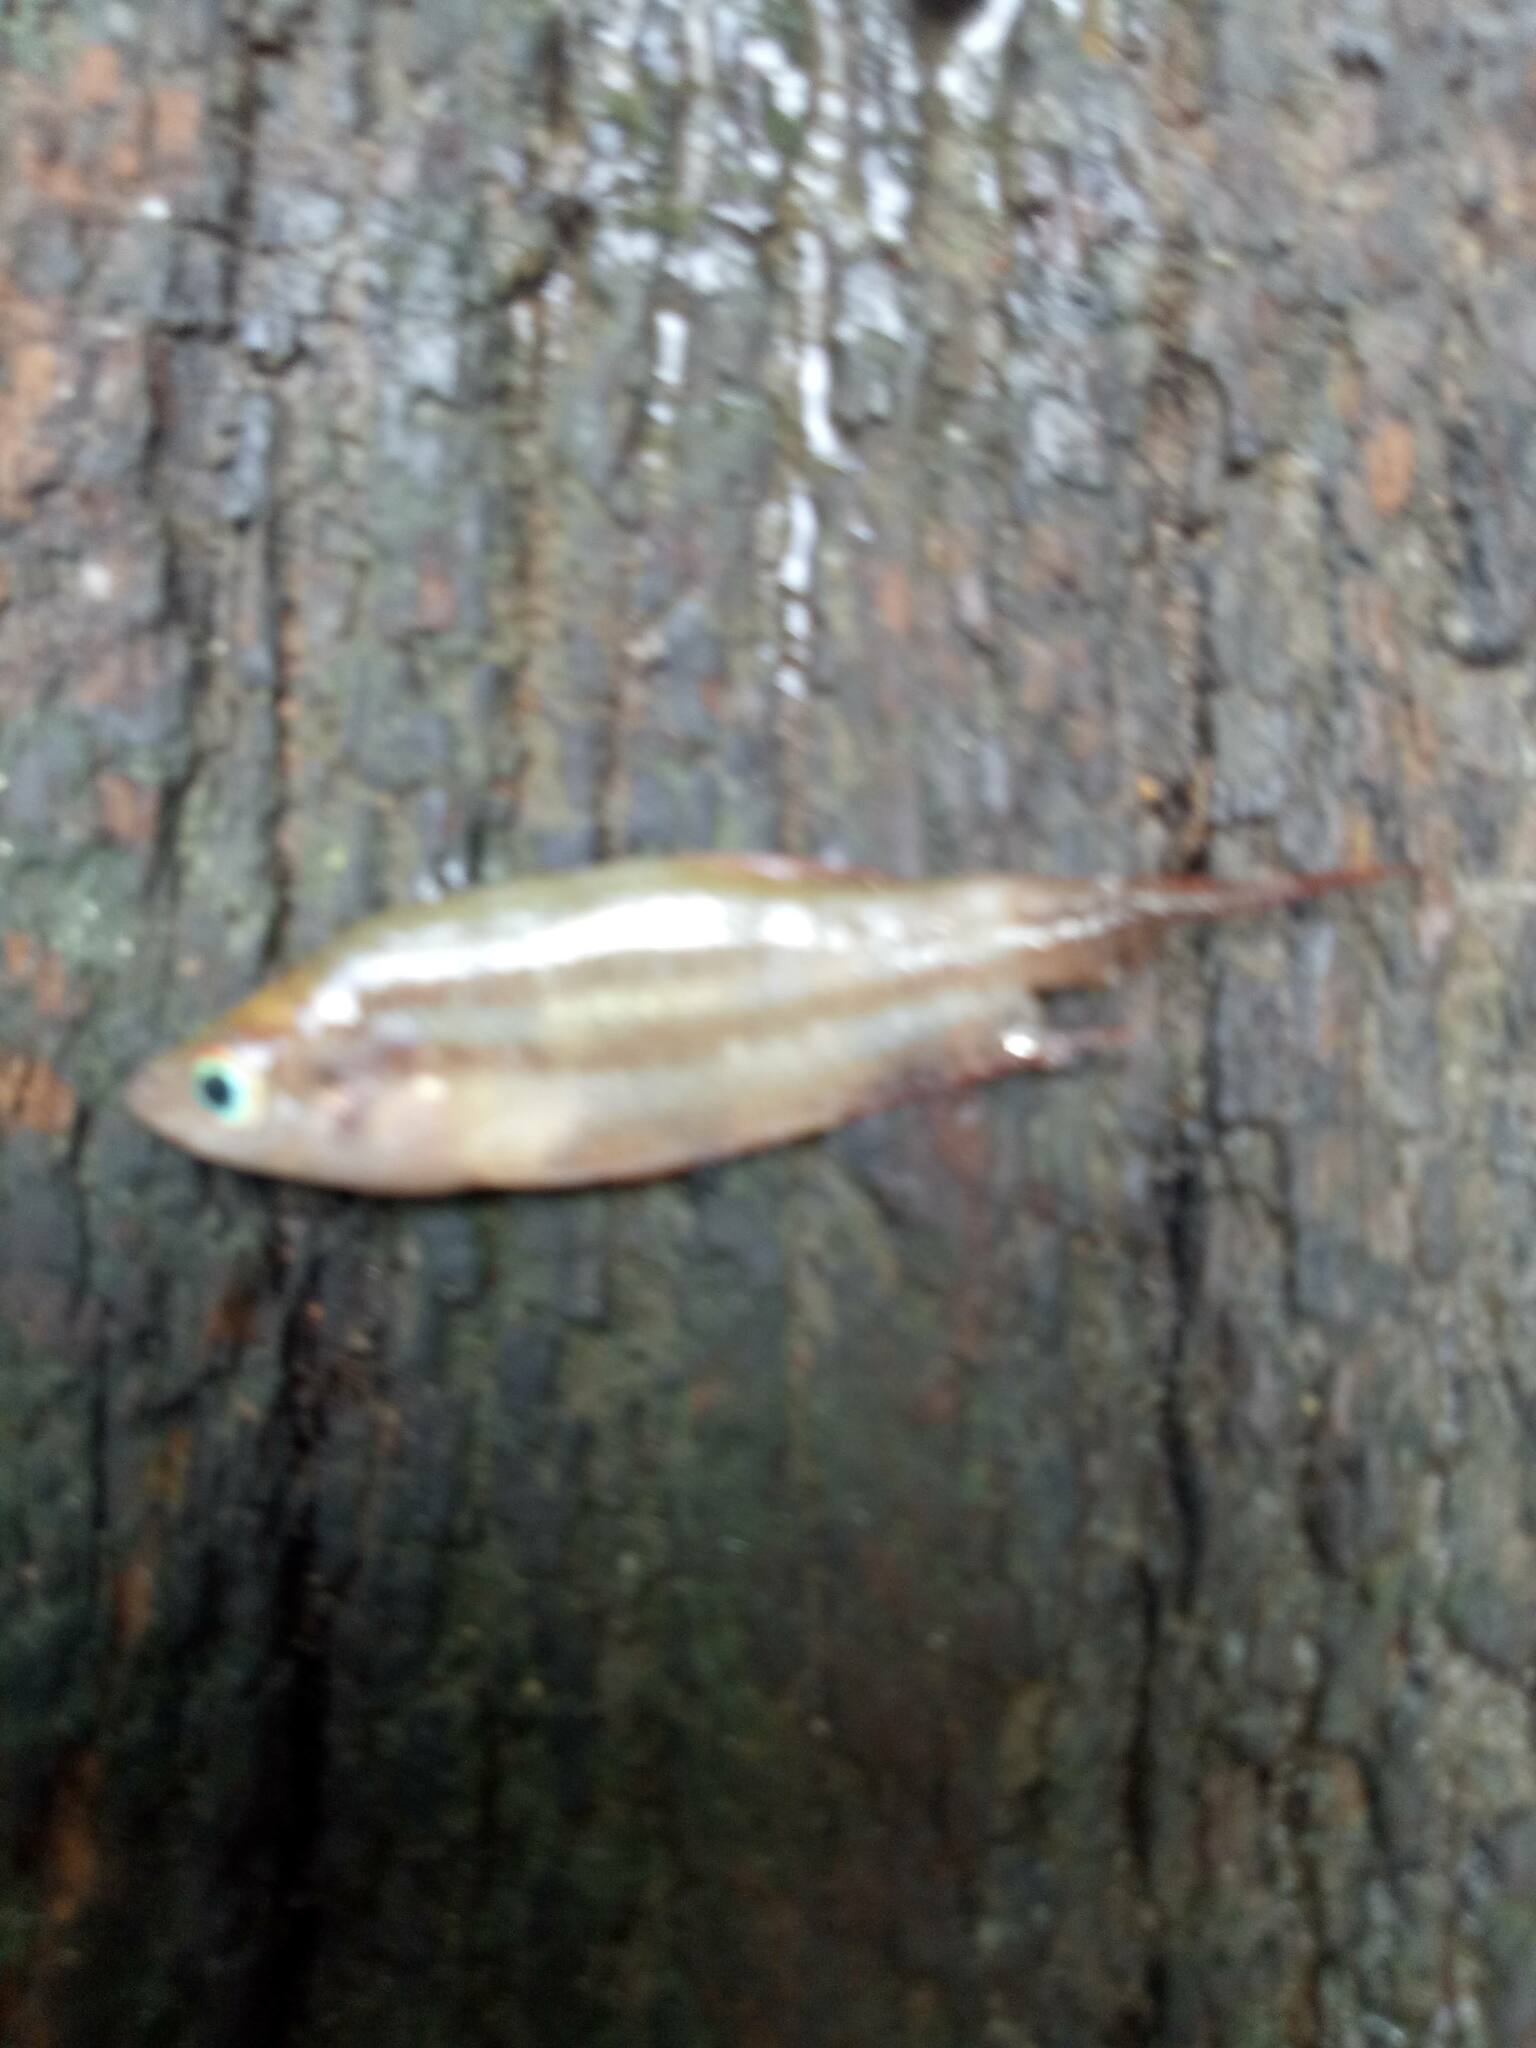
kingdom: Animalia
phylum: Chordata
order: Perciformes
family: Osphronemidae
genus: Trichopsis
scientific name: Trichopsis schalleri
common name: Mekong croacking guaramy
